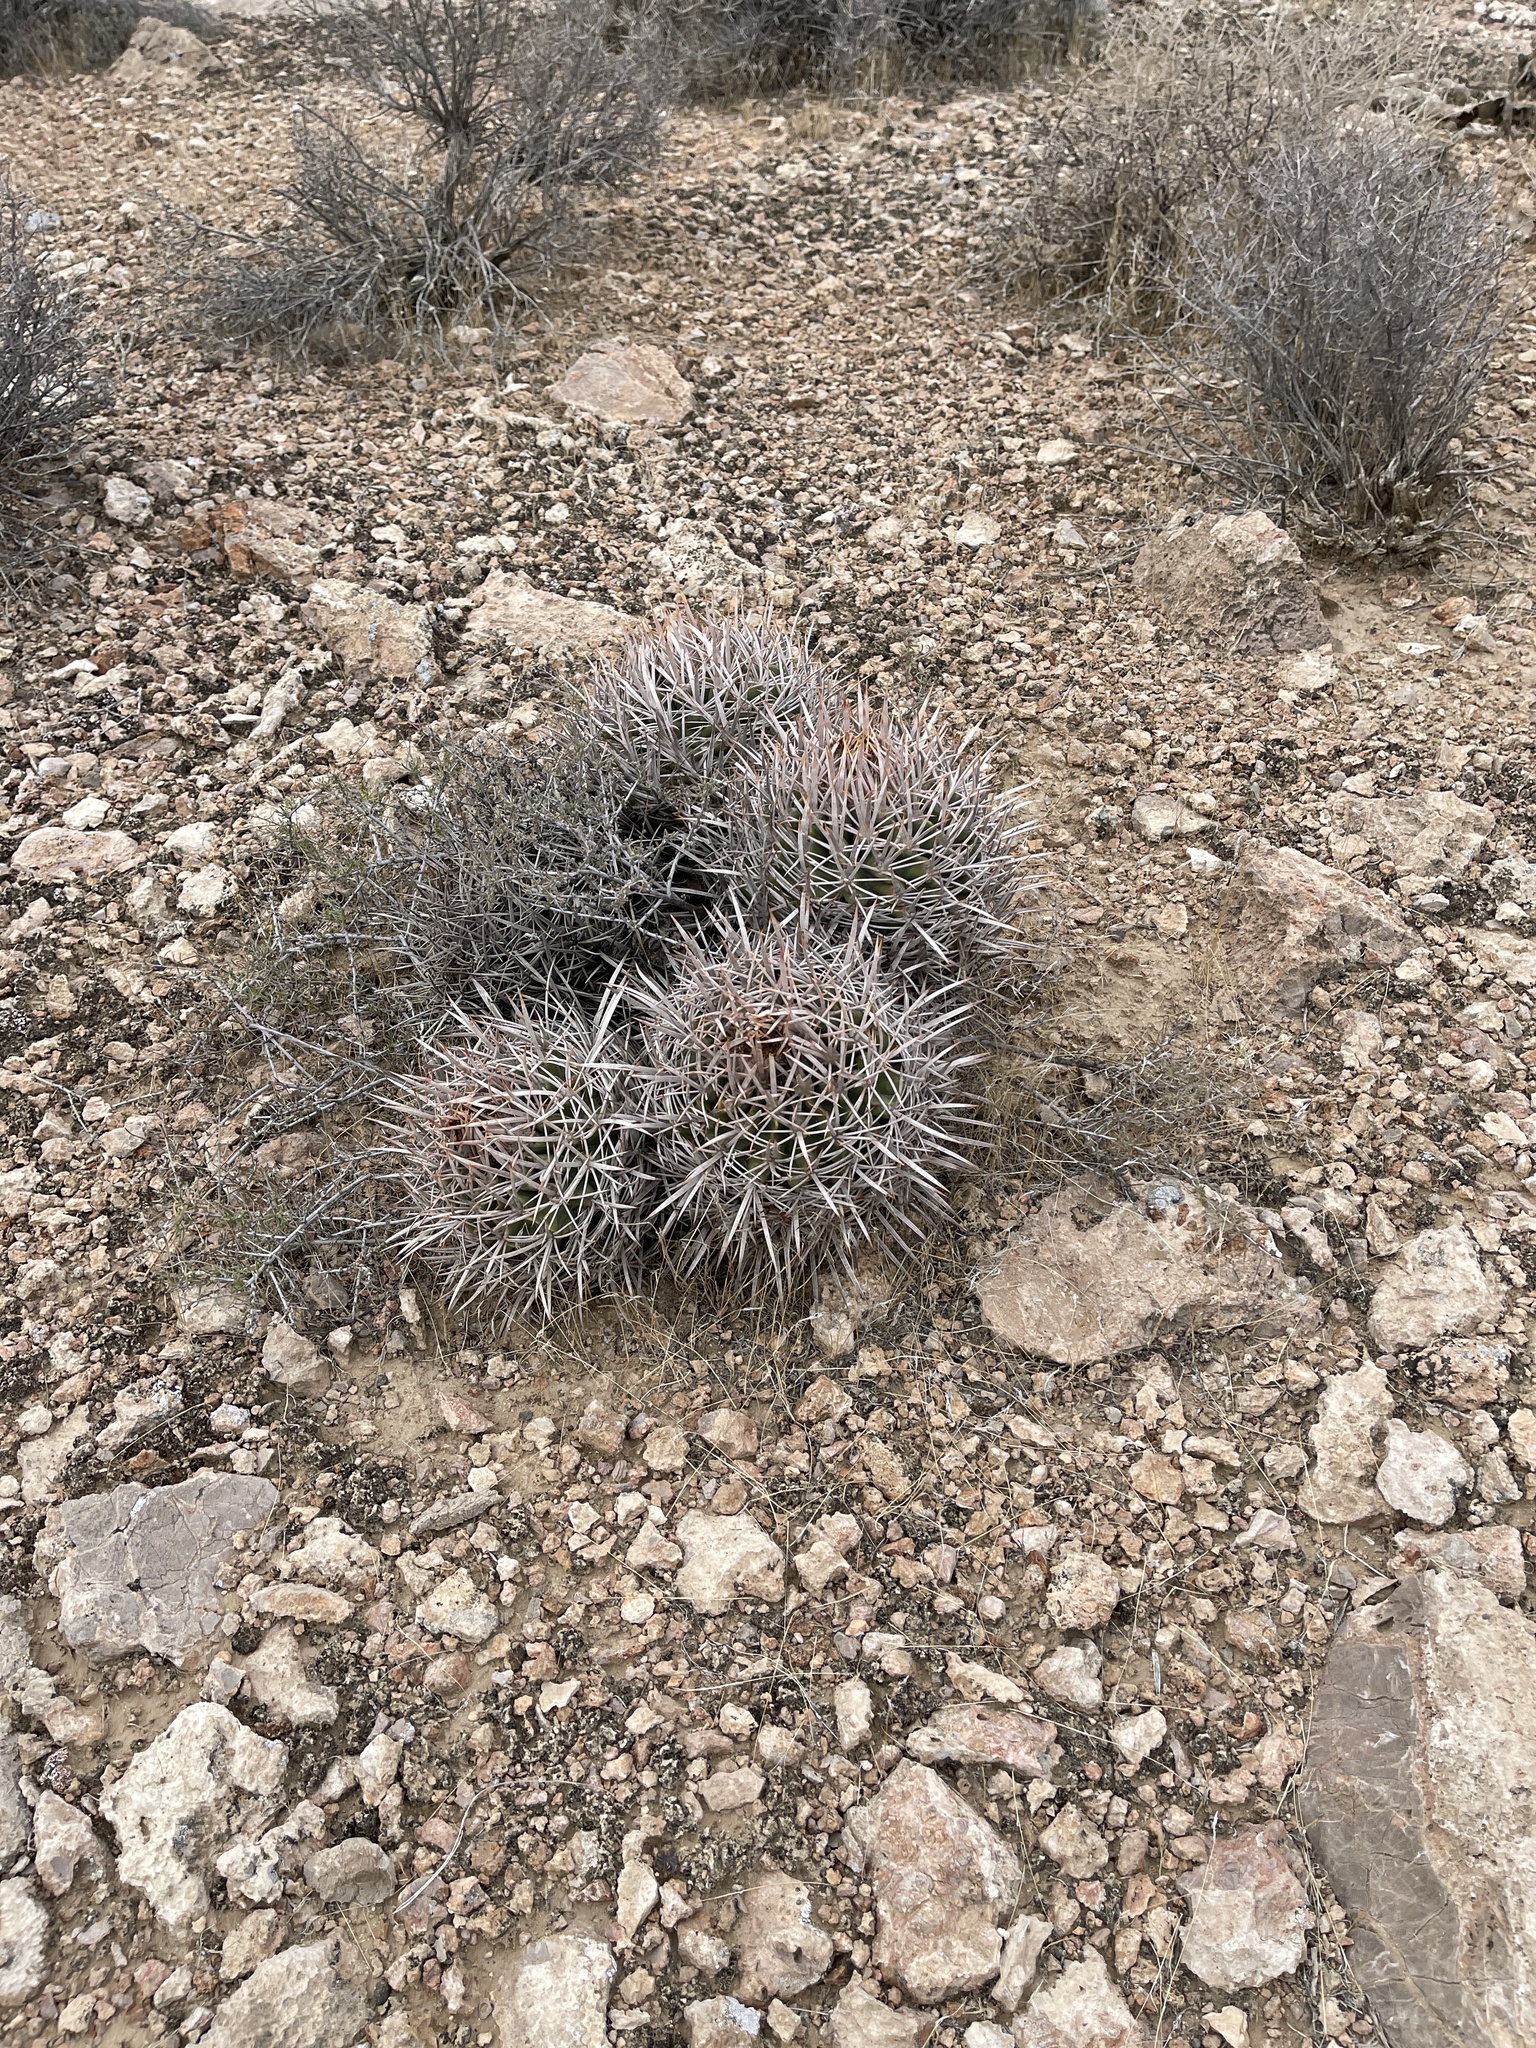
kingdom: Plantae
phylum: Tracheophyta
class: Magnoliopsida
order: Caryophyllales
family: Cactaceae
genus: Echinocactus
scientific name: Echinocactus polycephalus
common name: Cottontop cactus
